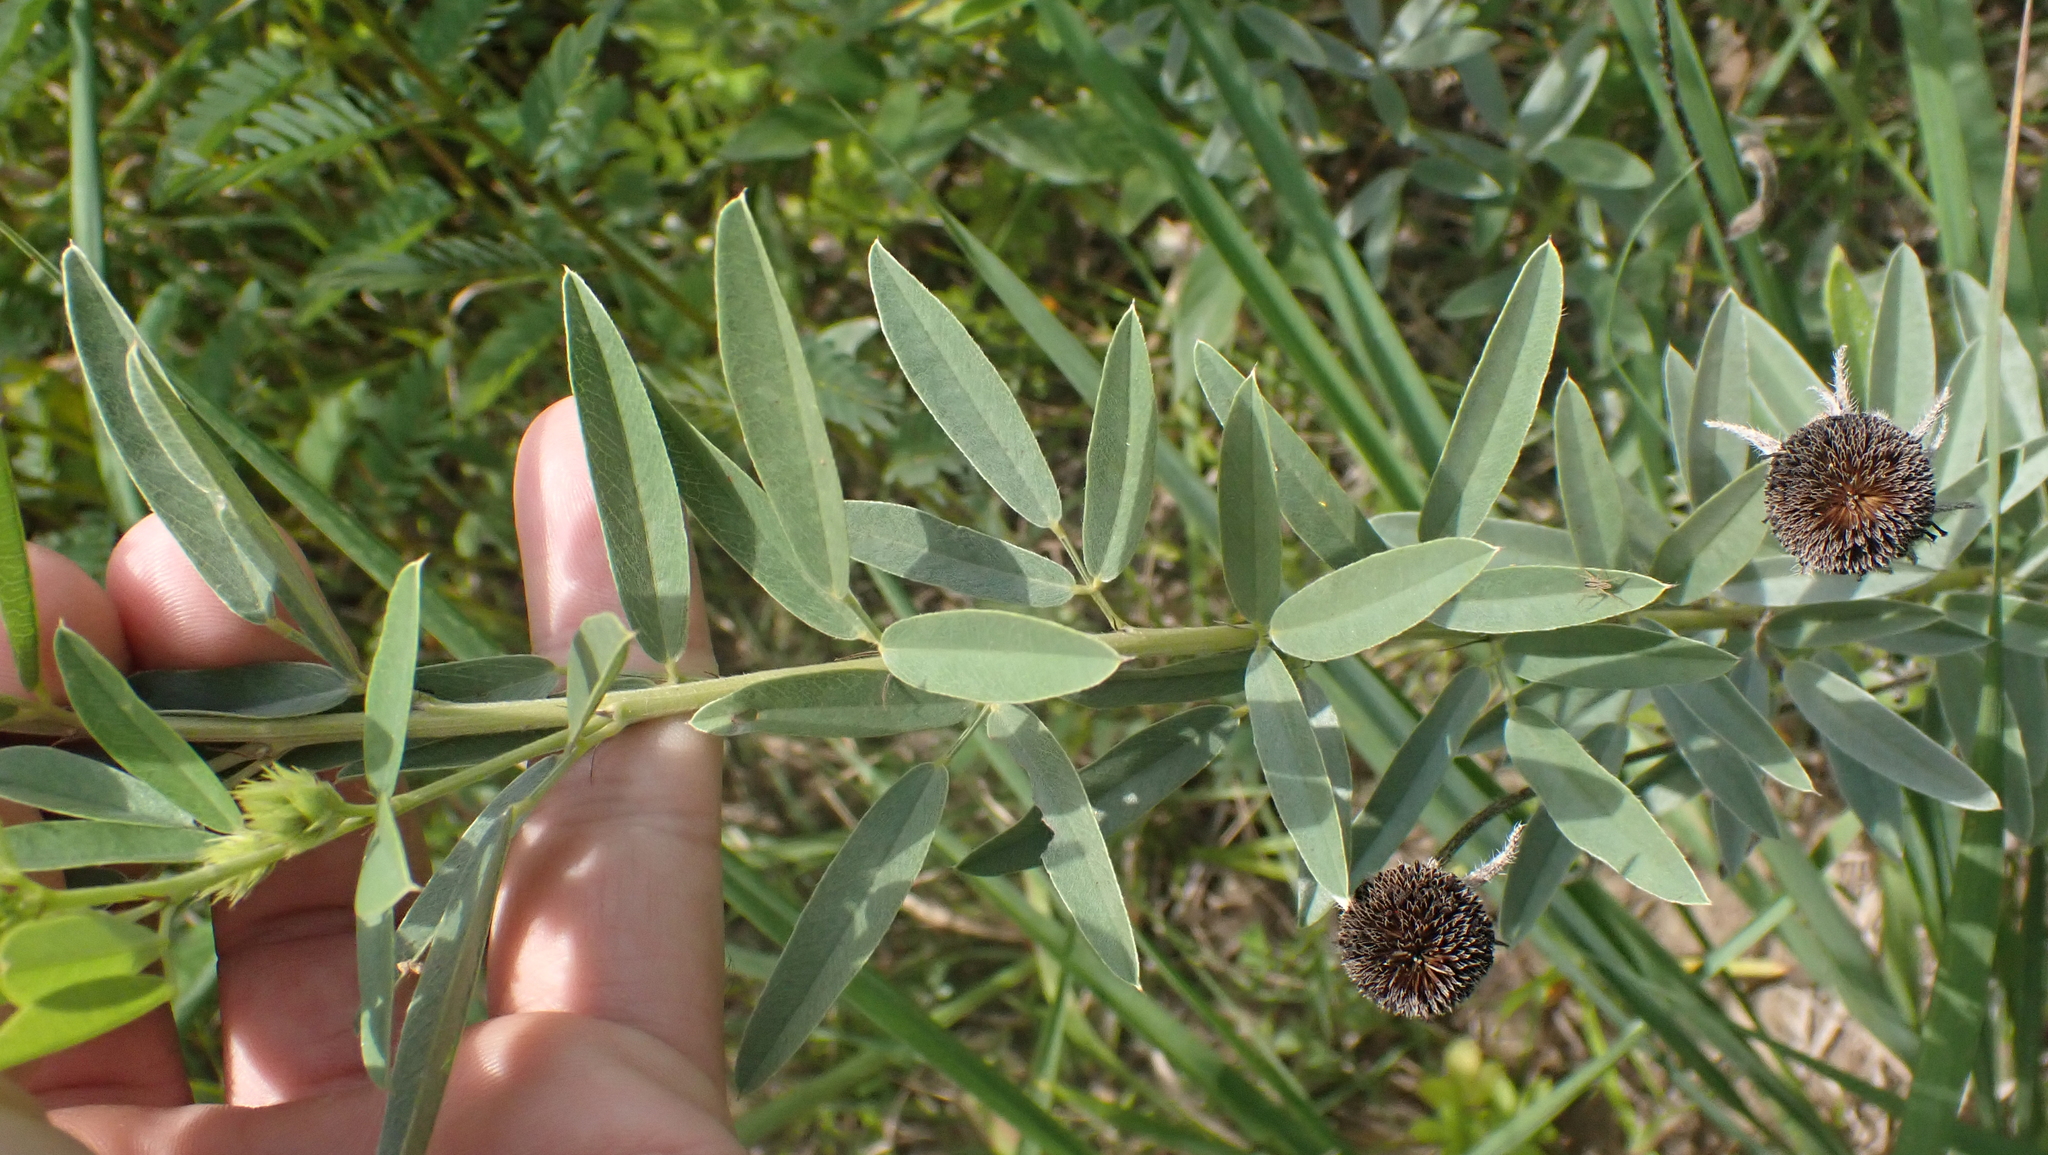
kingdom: Plantae
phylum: Tracheophyta
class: Magnoliopsida
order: Fabales
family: Fabaceae
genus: Lespedeza
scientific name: Lespedeza capitata
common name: Dusty clover
